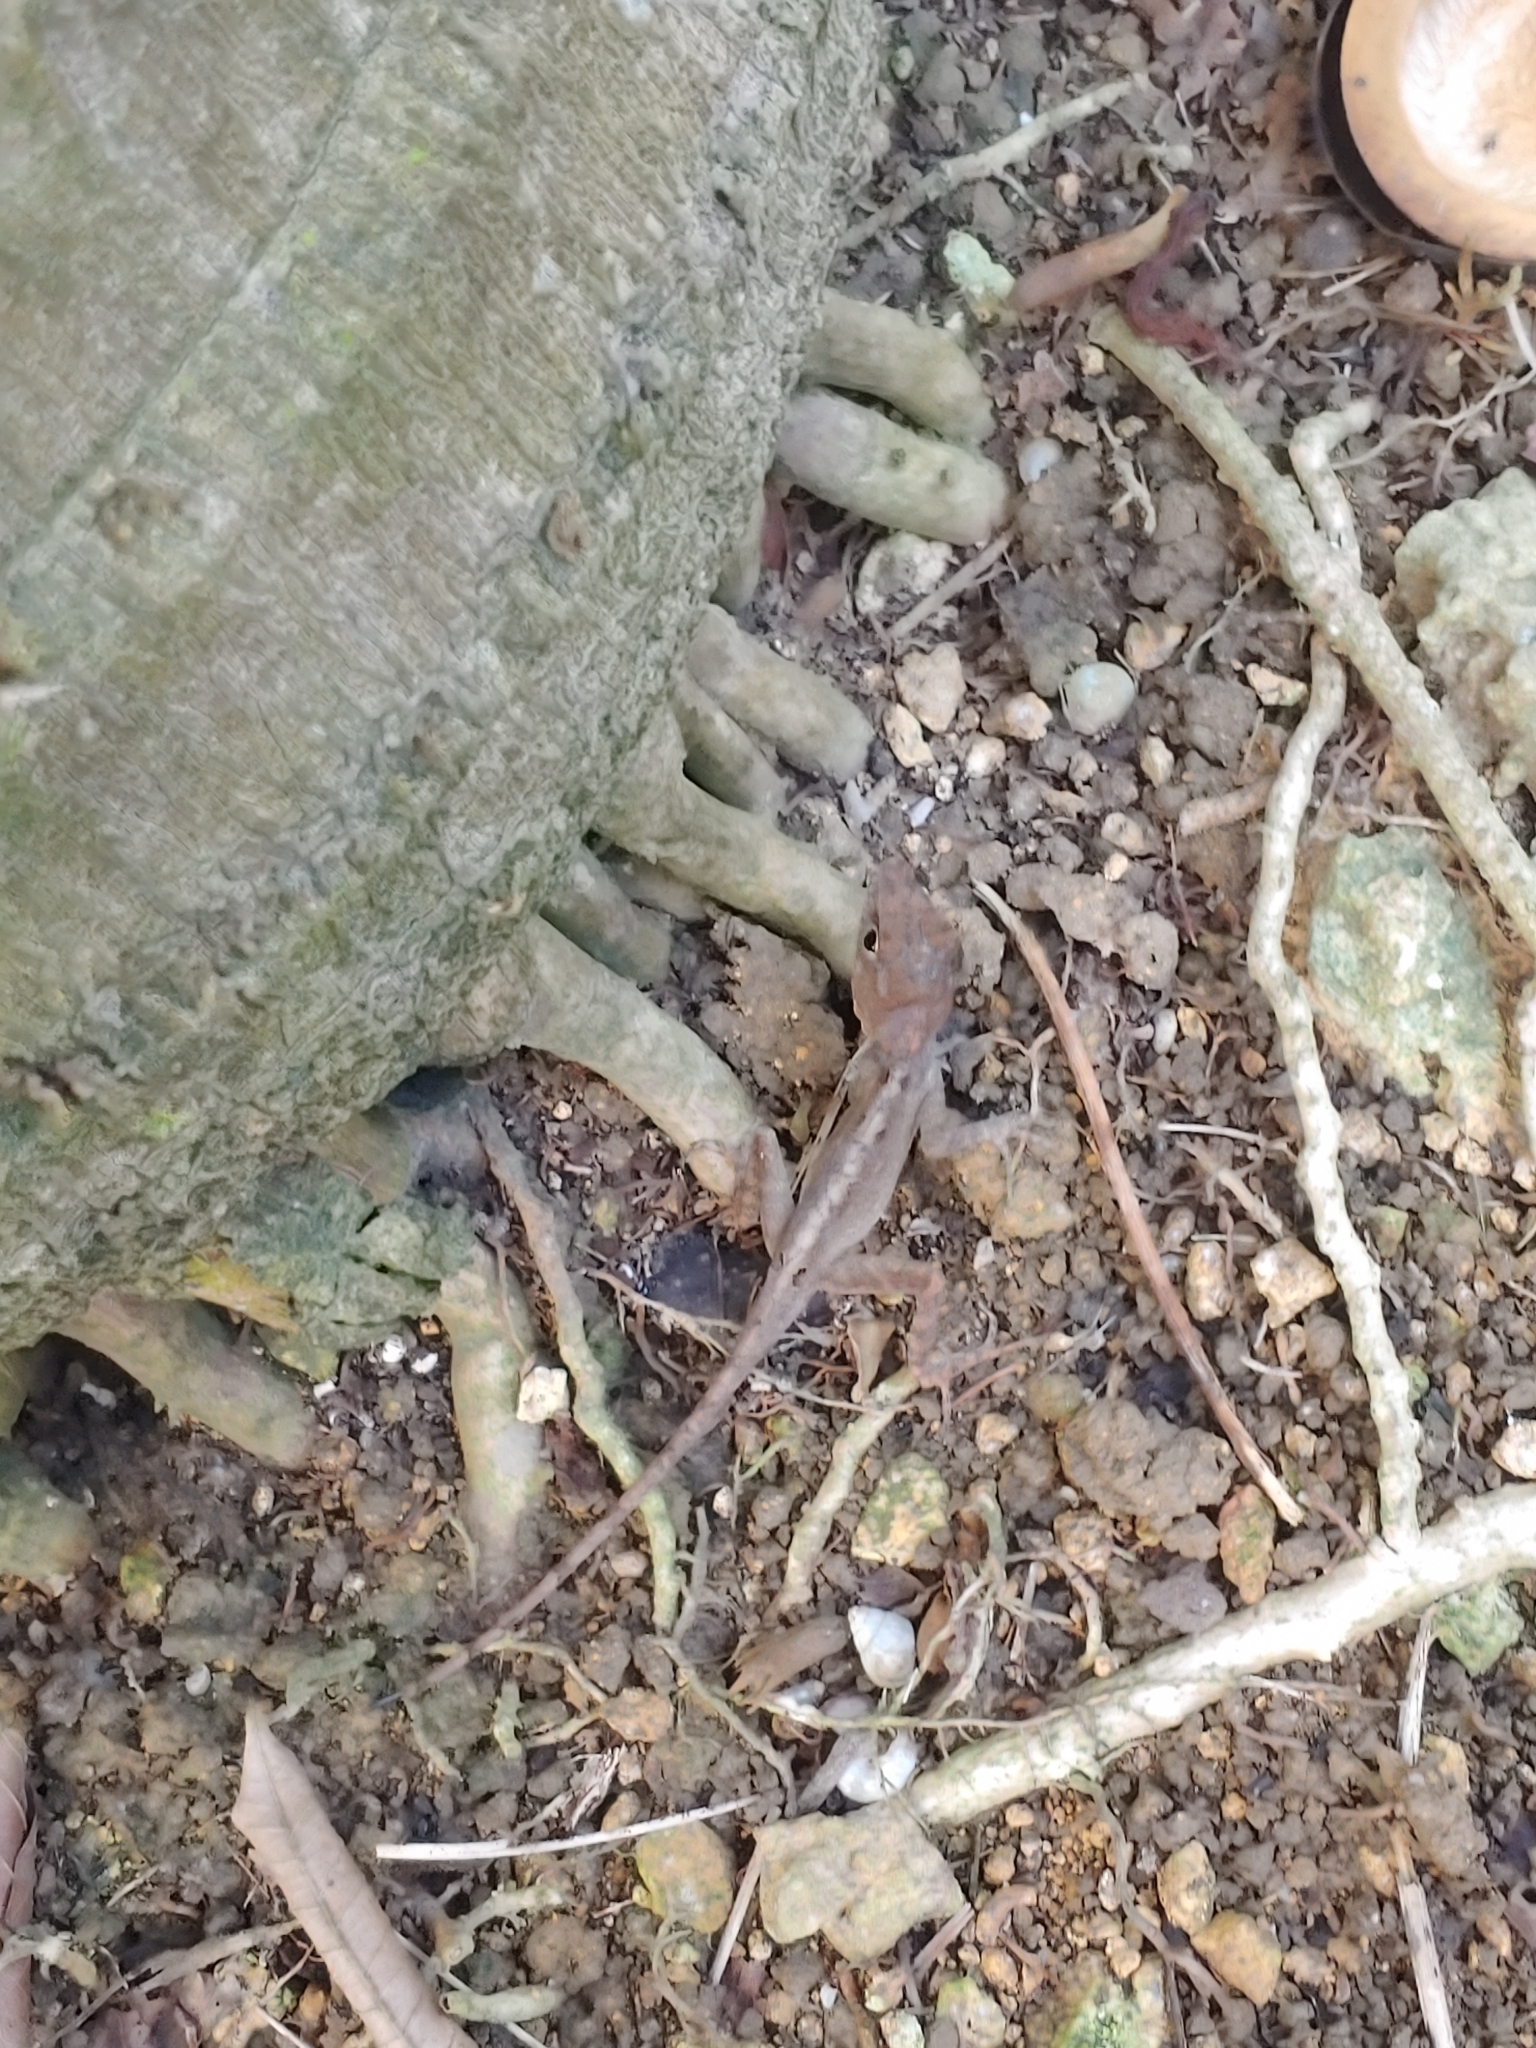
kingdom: Animalia
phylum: Chordata
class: Squamata
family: Dactyloidae
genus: Anolis
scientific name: Anolis hispaniolae
